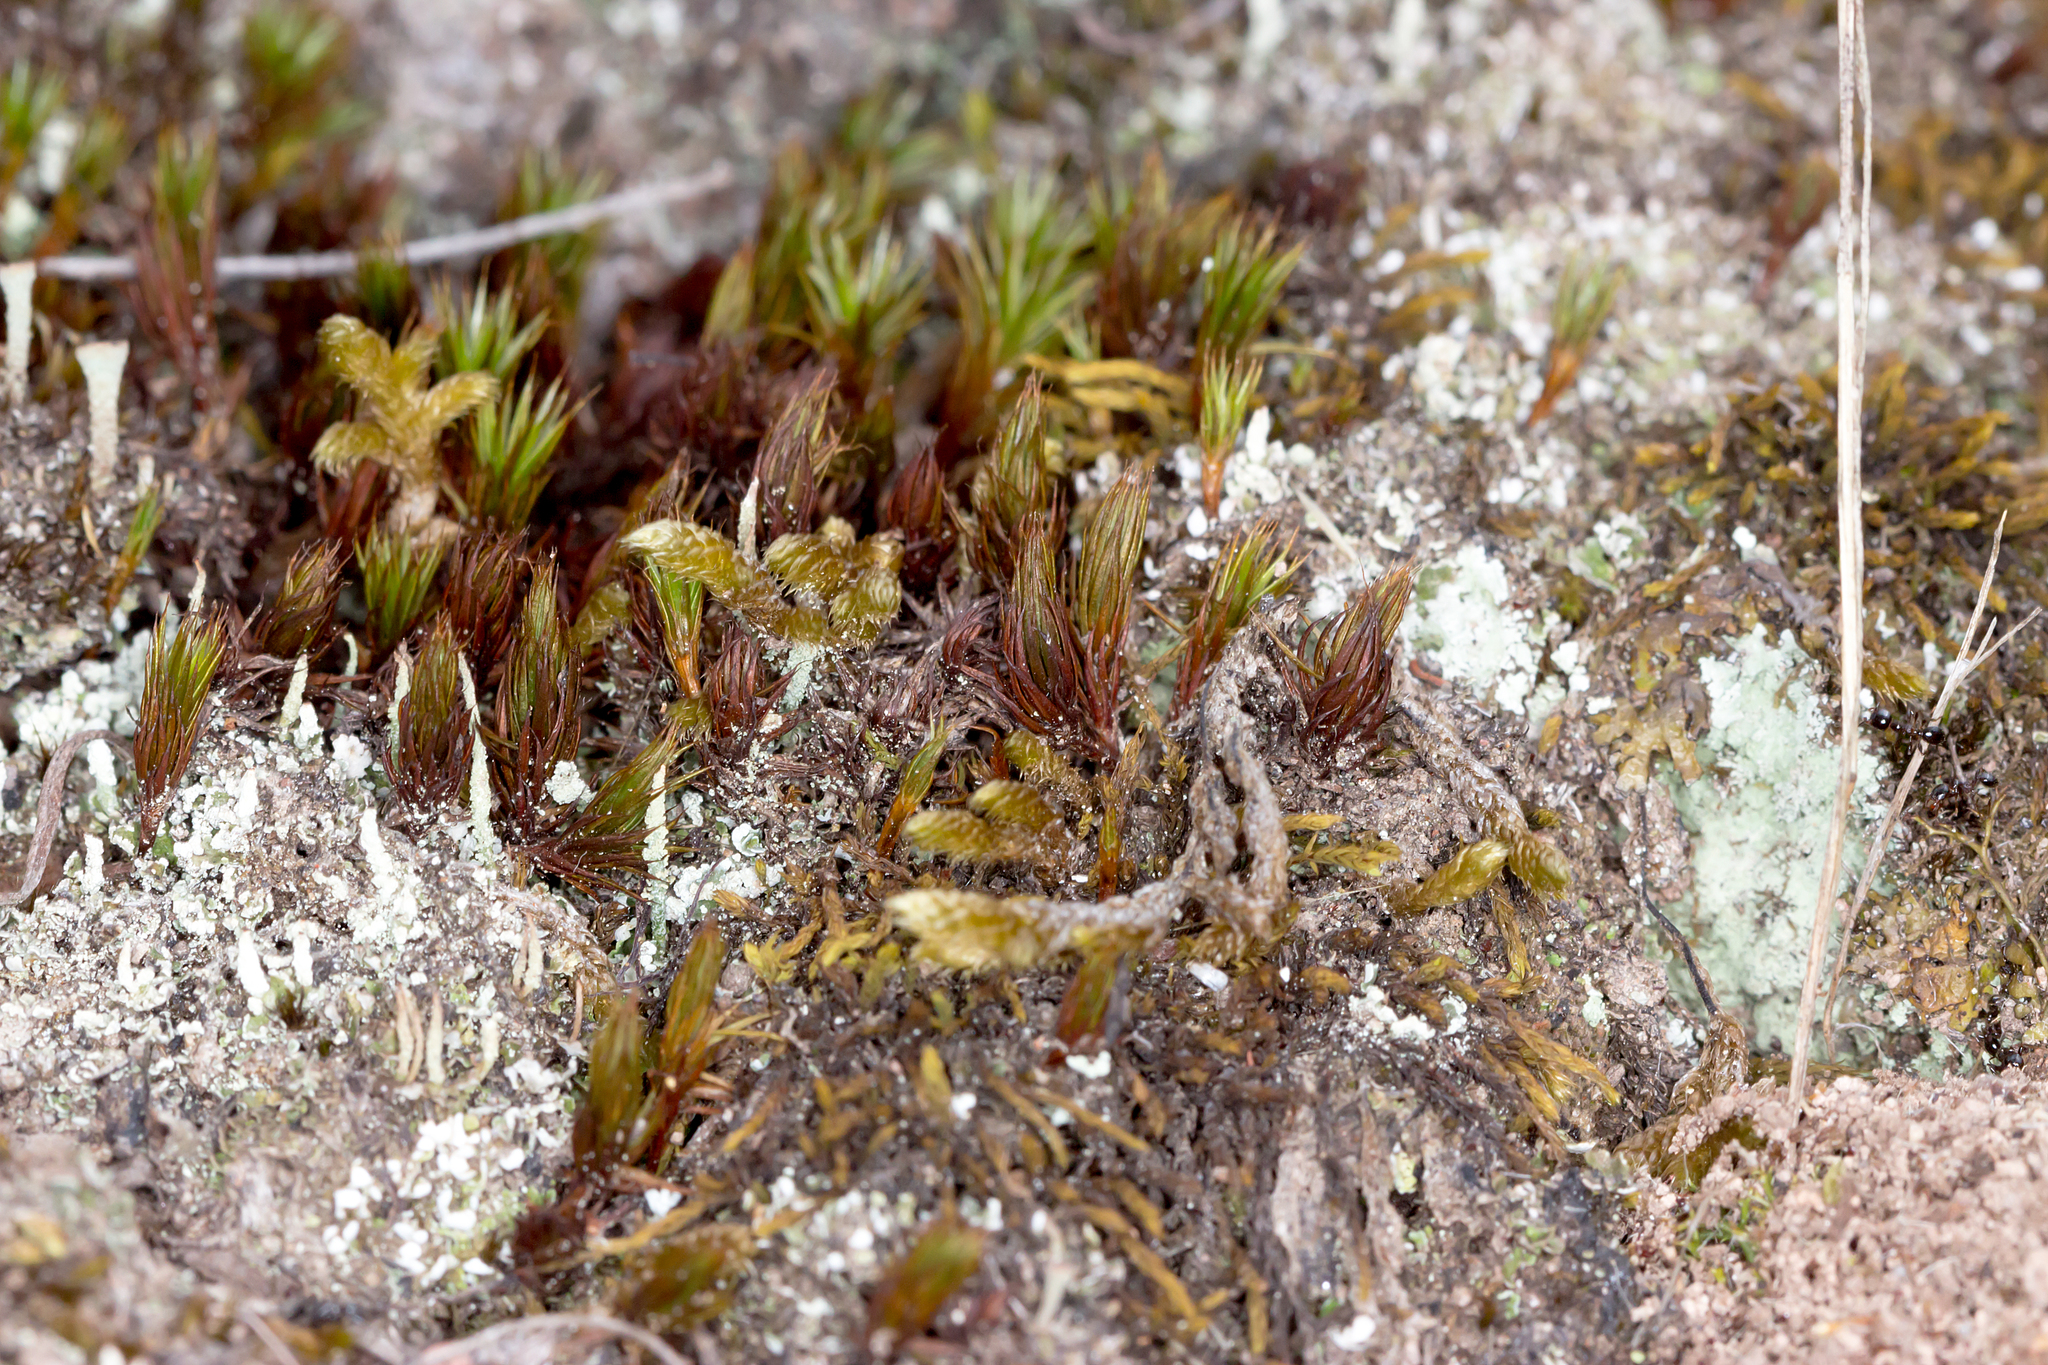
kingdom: Plantae
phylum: Bryophyta
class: Polytrichopsida
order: Polytrichales
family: Polytrichaceae
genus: Polytrichum
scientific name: Polytrichum juniperinum
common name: Juniper haircap moss
